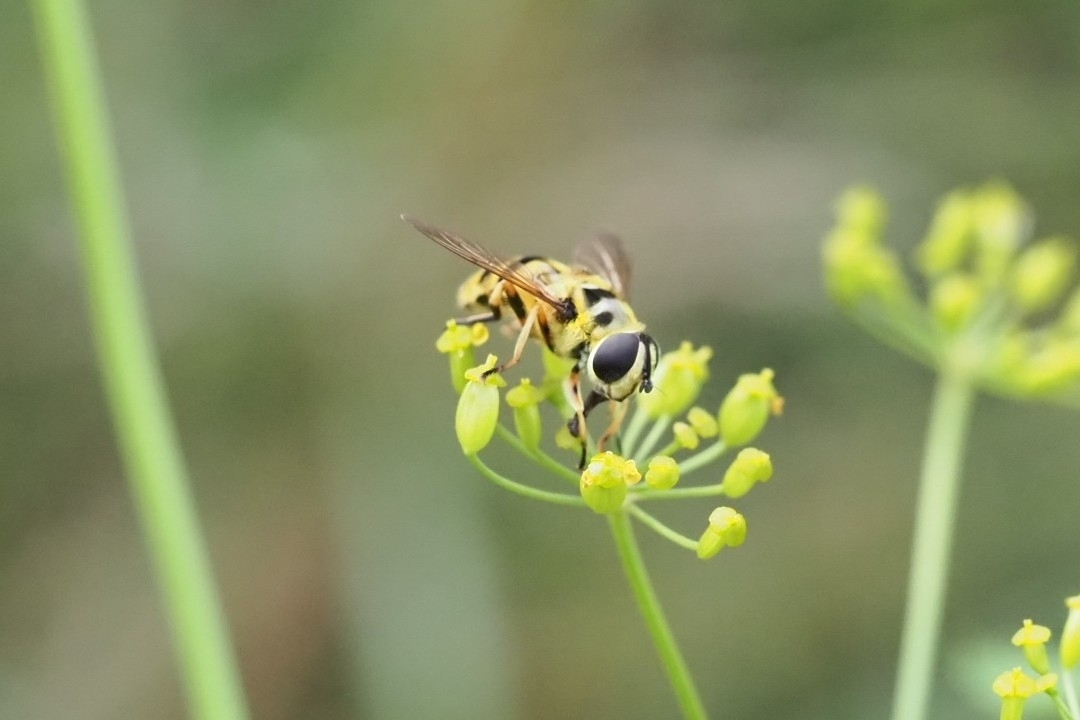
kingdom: Animalia
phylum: Arthropoda
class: Insecta
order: Diptera
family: Syrphidae
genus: Myathropa
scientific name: Myathropa florea
